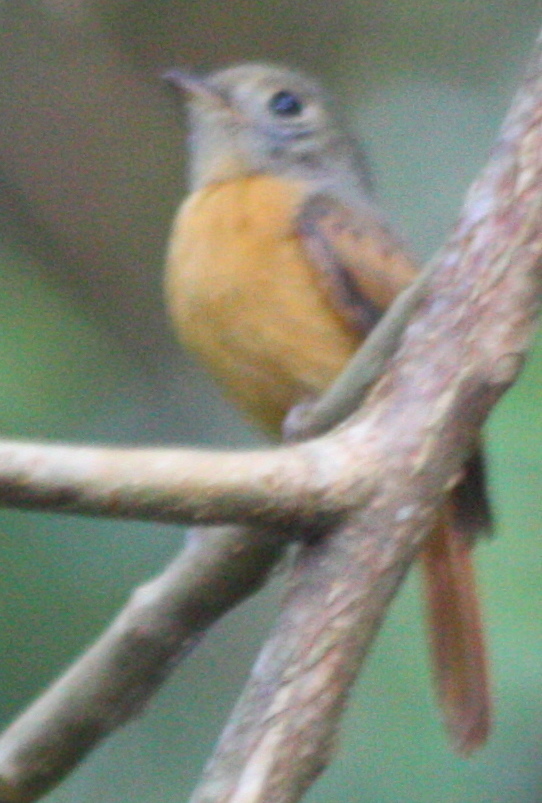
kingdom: Animalia
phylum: Chordata
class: Aves
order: Passeriformes
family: Tyrannidae
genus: Terenotriccus
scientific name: Terenotriccus erythrurus
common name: Ruddy-tailed flycatcher
